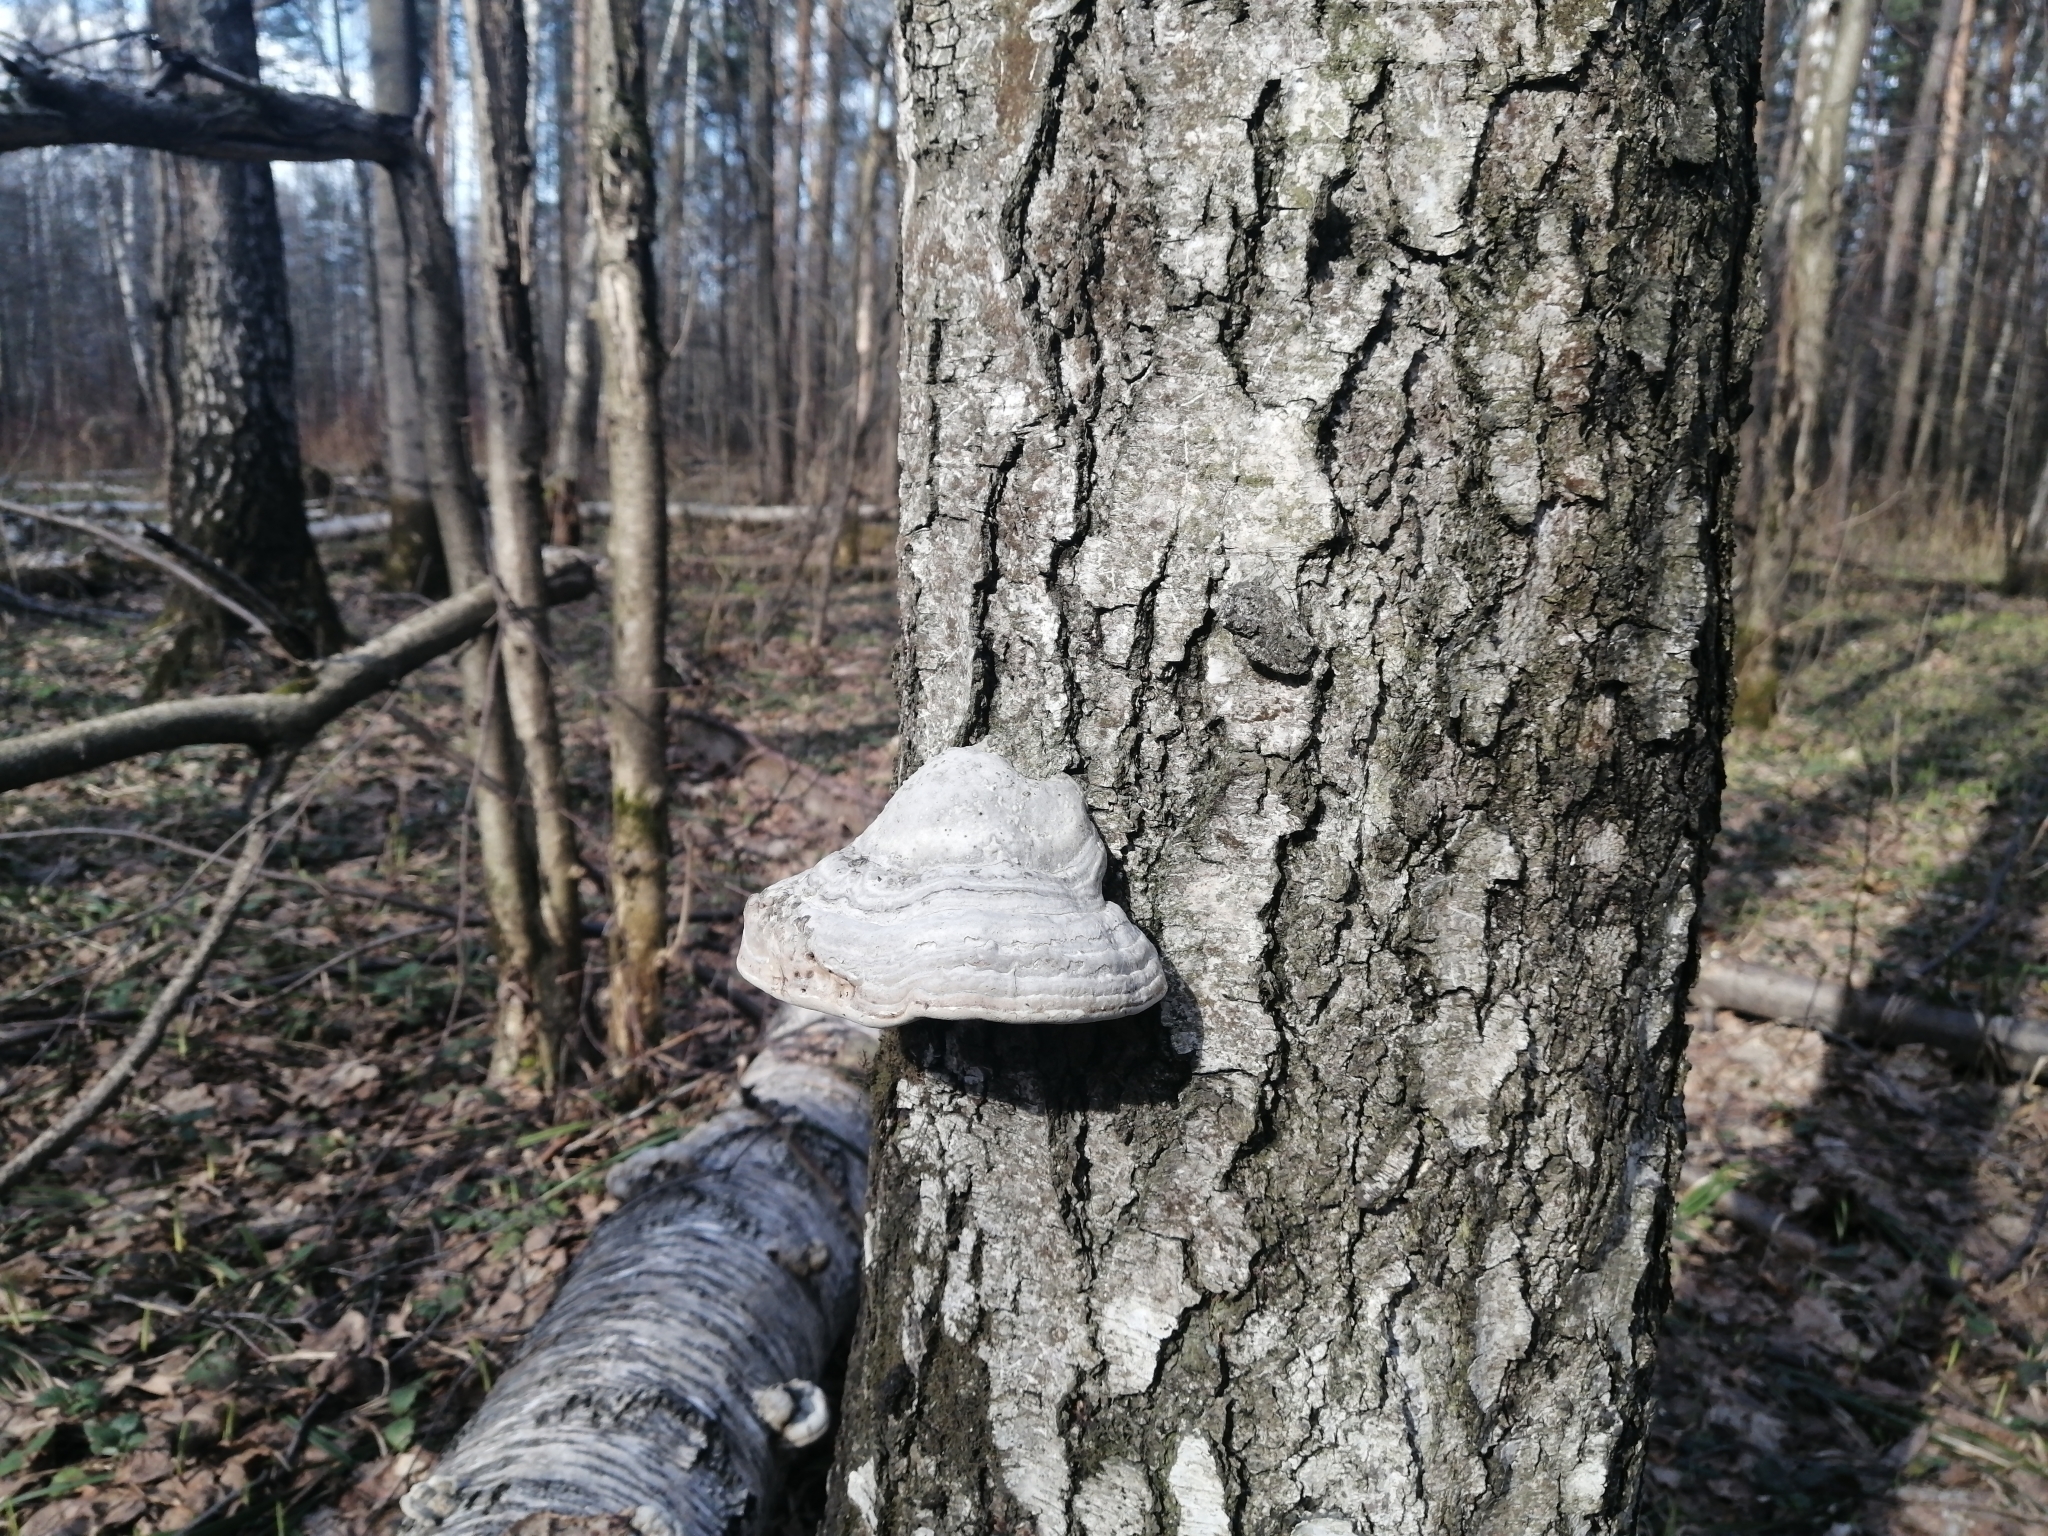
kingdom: Fungi
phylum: Basidiomycota
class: Agaricomycetes
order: Polyporales
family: Polyporaceae
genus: Fomes
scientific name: Fomes fomentarius
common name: Hoof fungus
